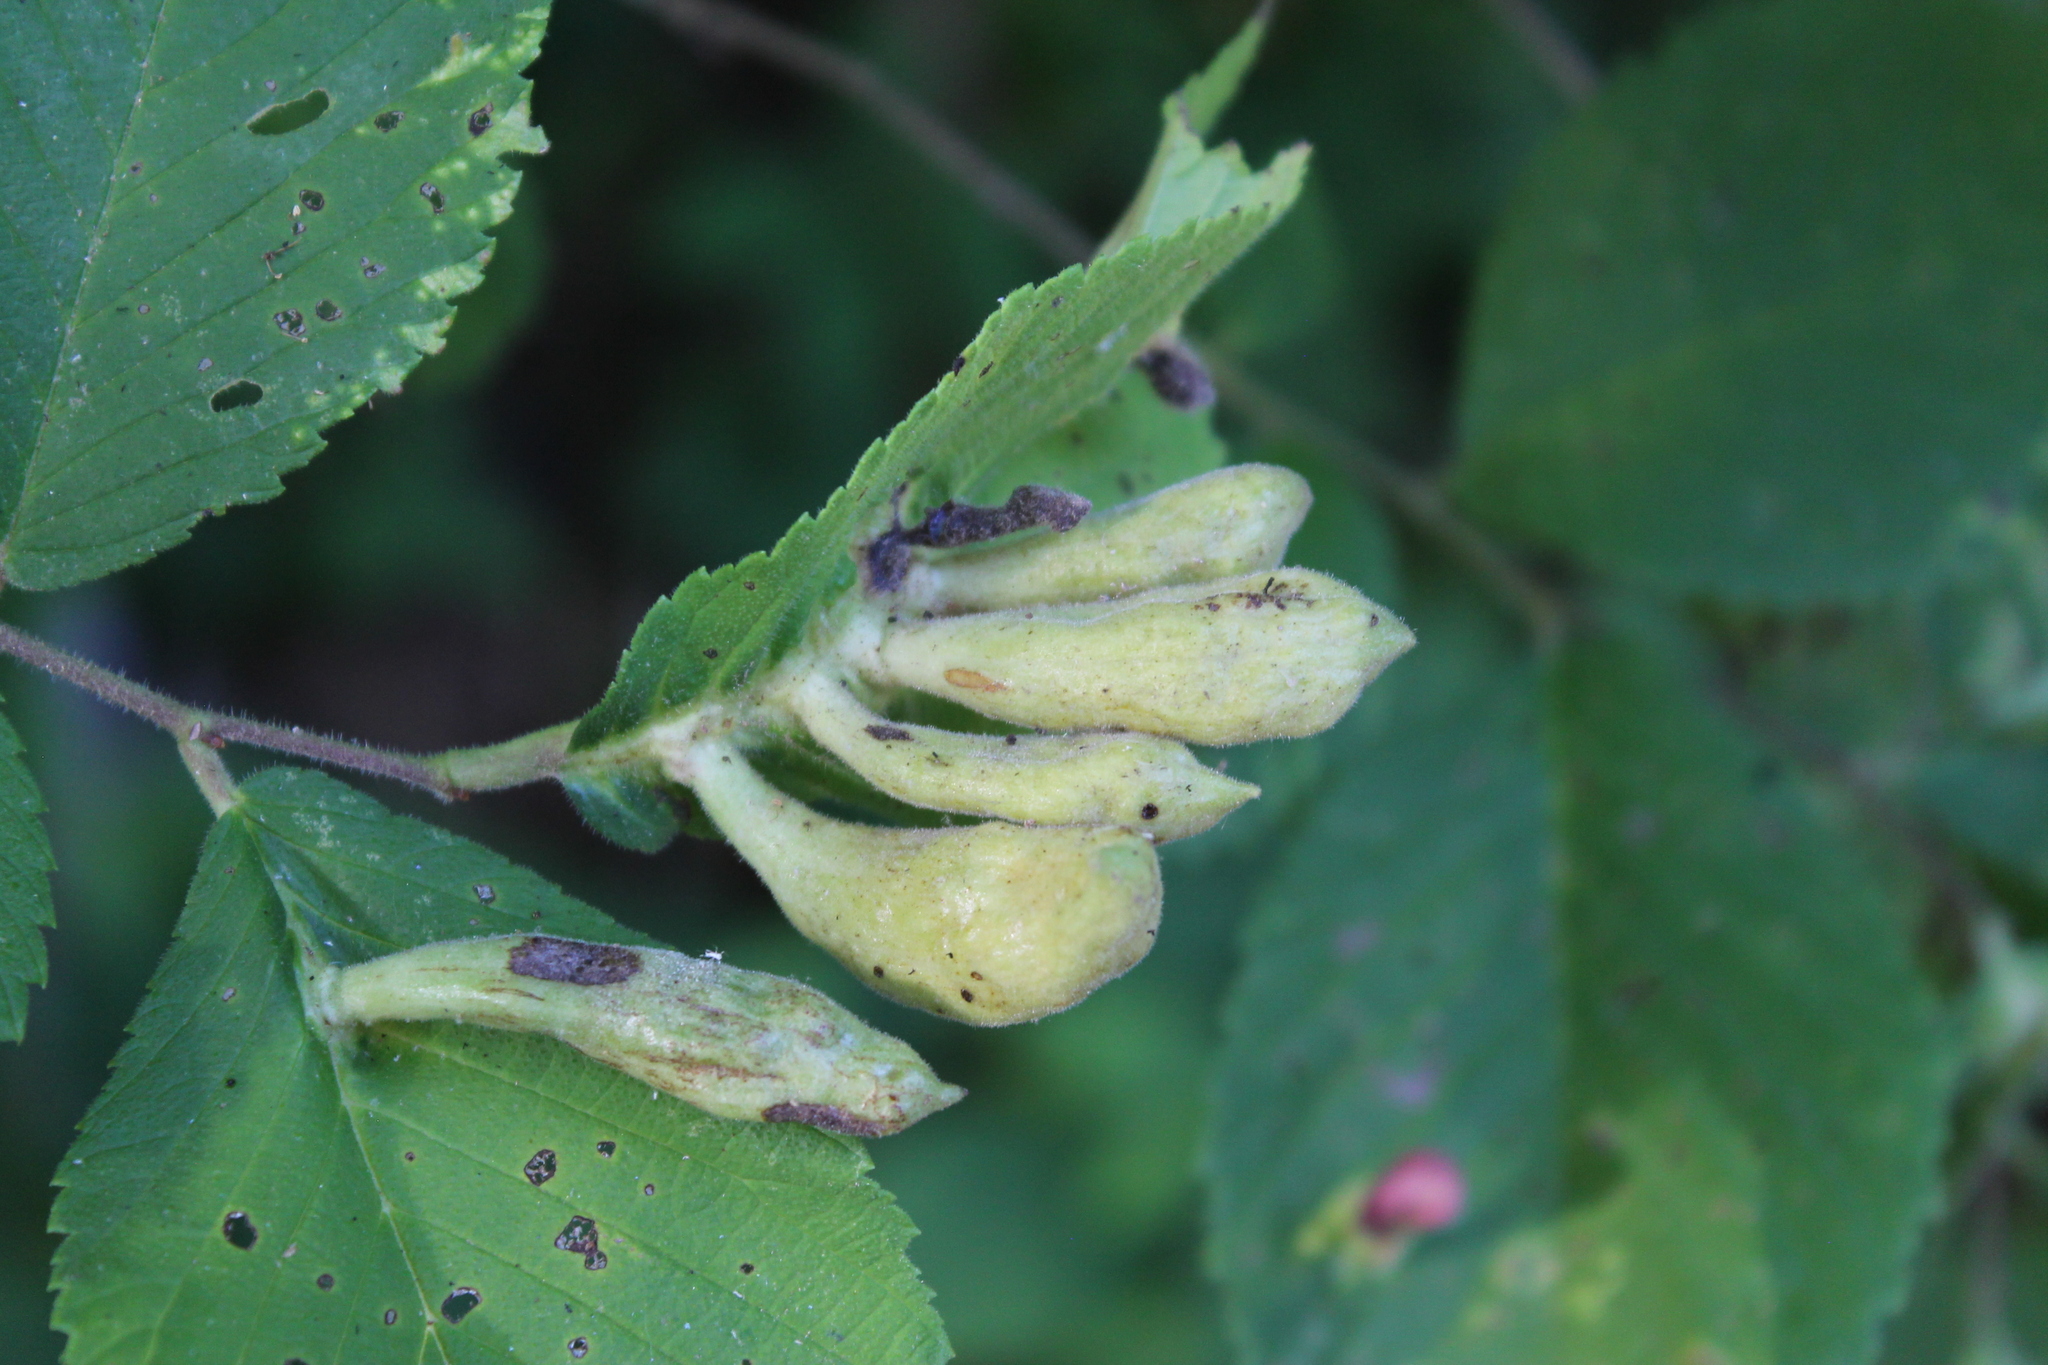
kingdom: Animalia
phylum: Arthropoda
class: Insecta
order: Hemiptera
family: Aphididae
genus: Kaltenbachiella
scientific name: Kaltenbachiella ulmifusa
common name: Elm pouchgall aphid
